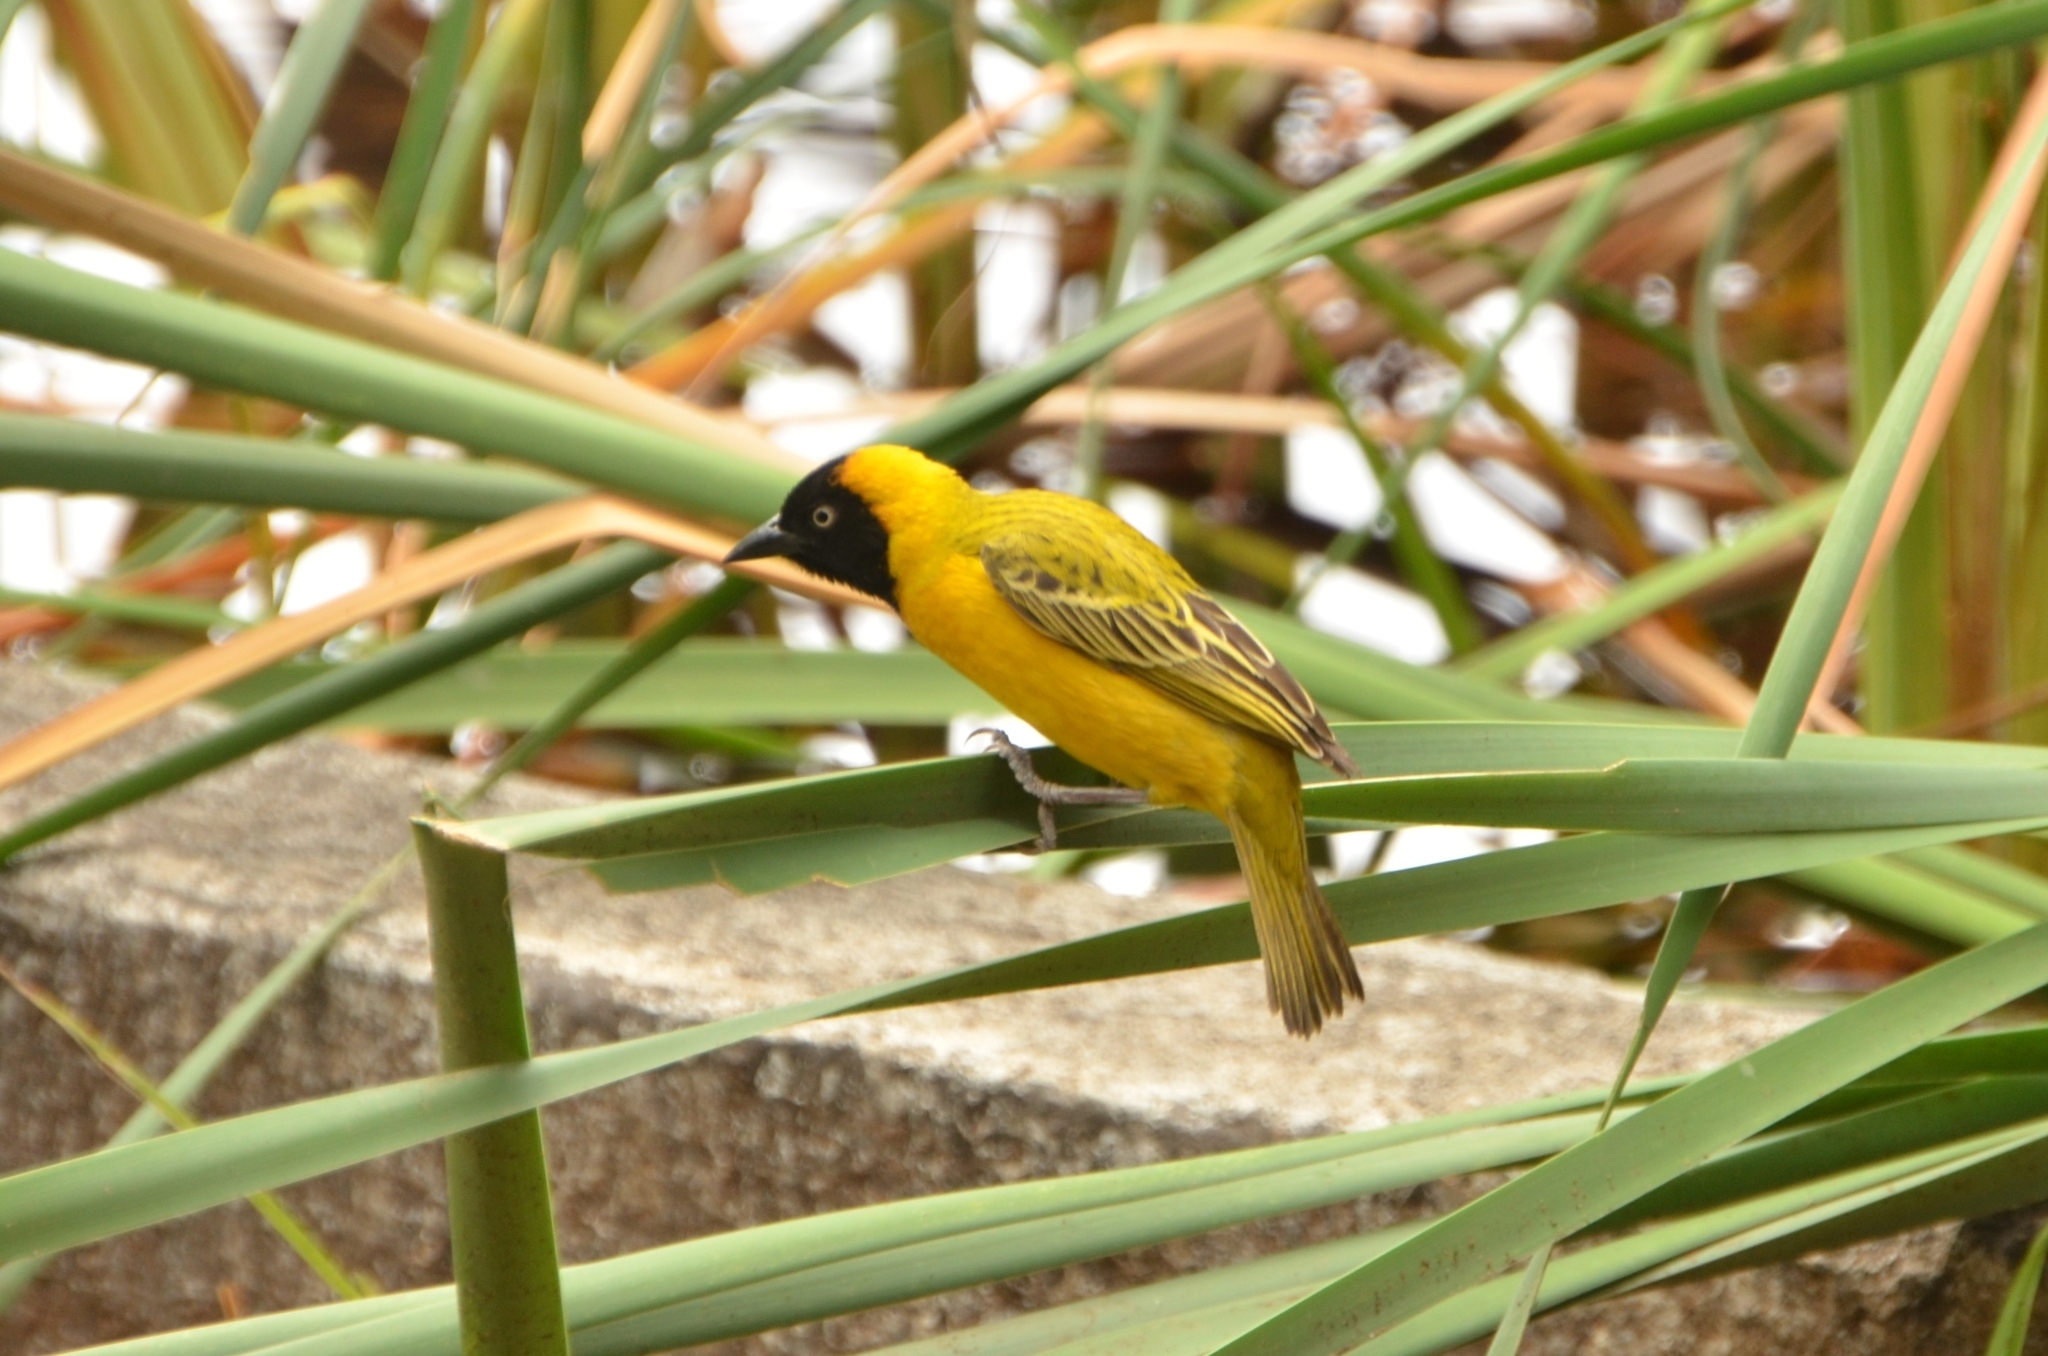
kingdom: Animalia
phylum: Chordata
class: Aves
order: Passeriformes
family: Ploceidae
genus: Ploceus
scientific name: Ploceus intermedius
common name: Lesser masked weaver
